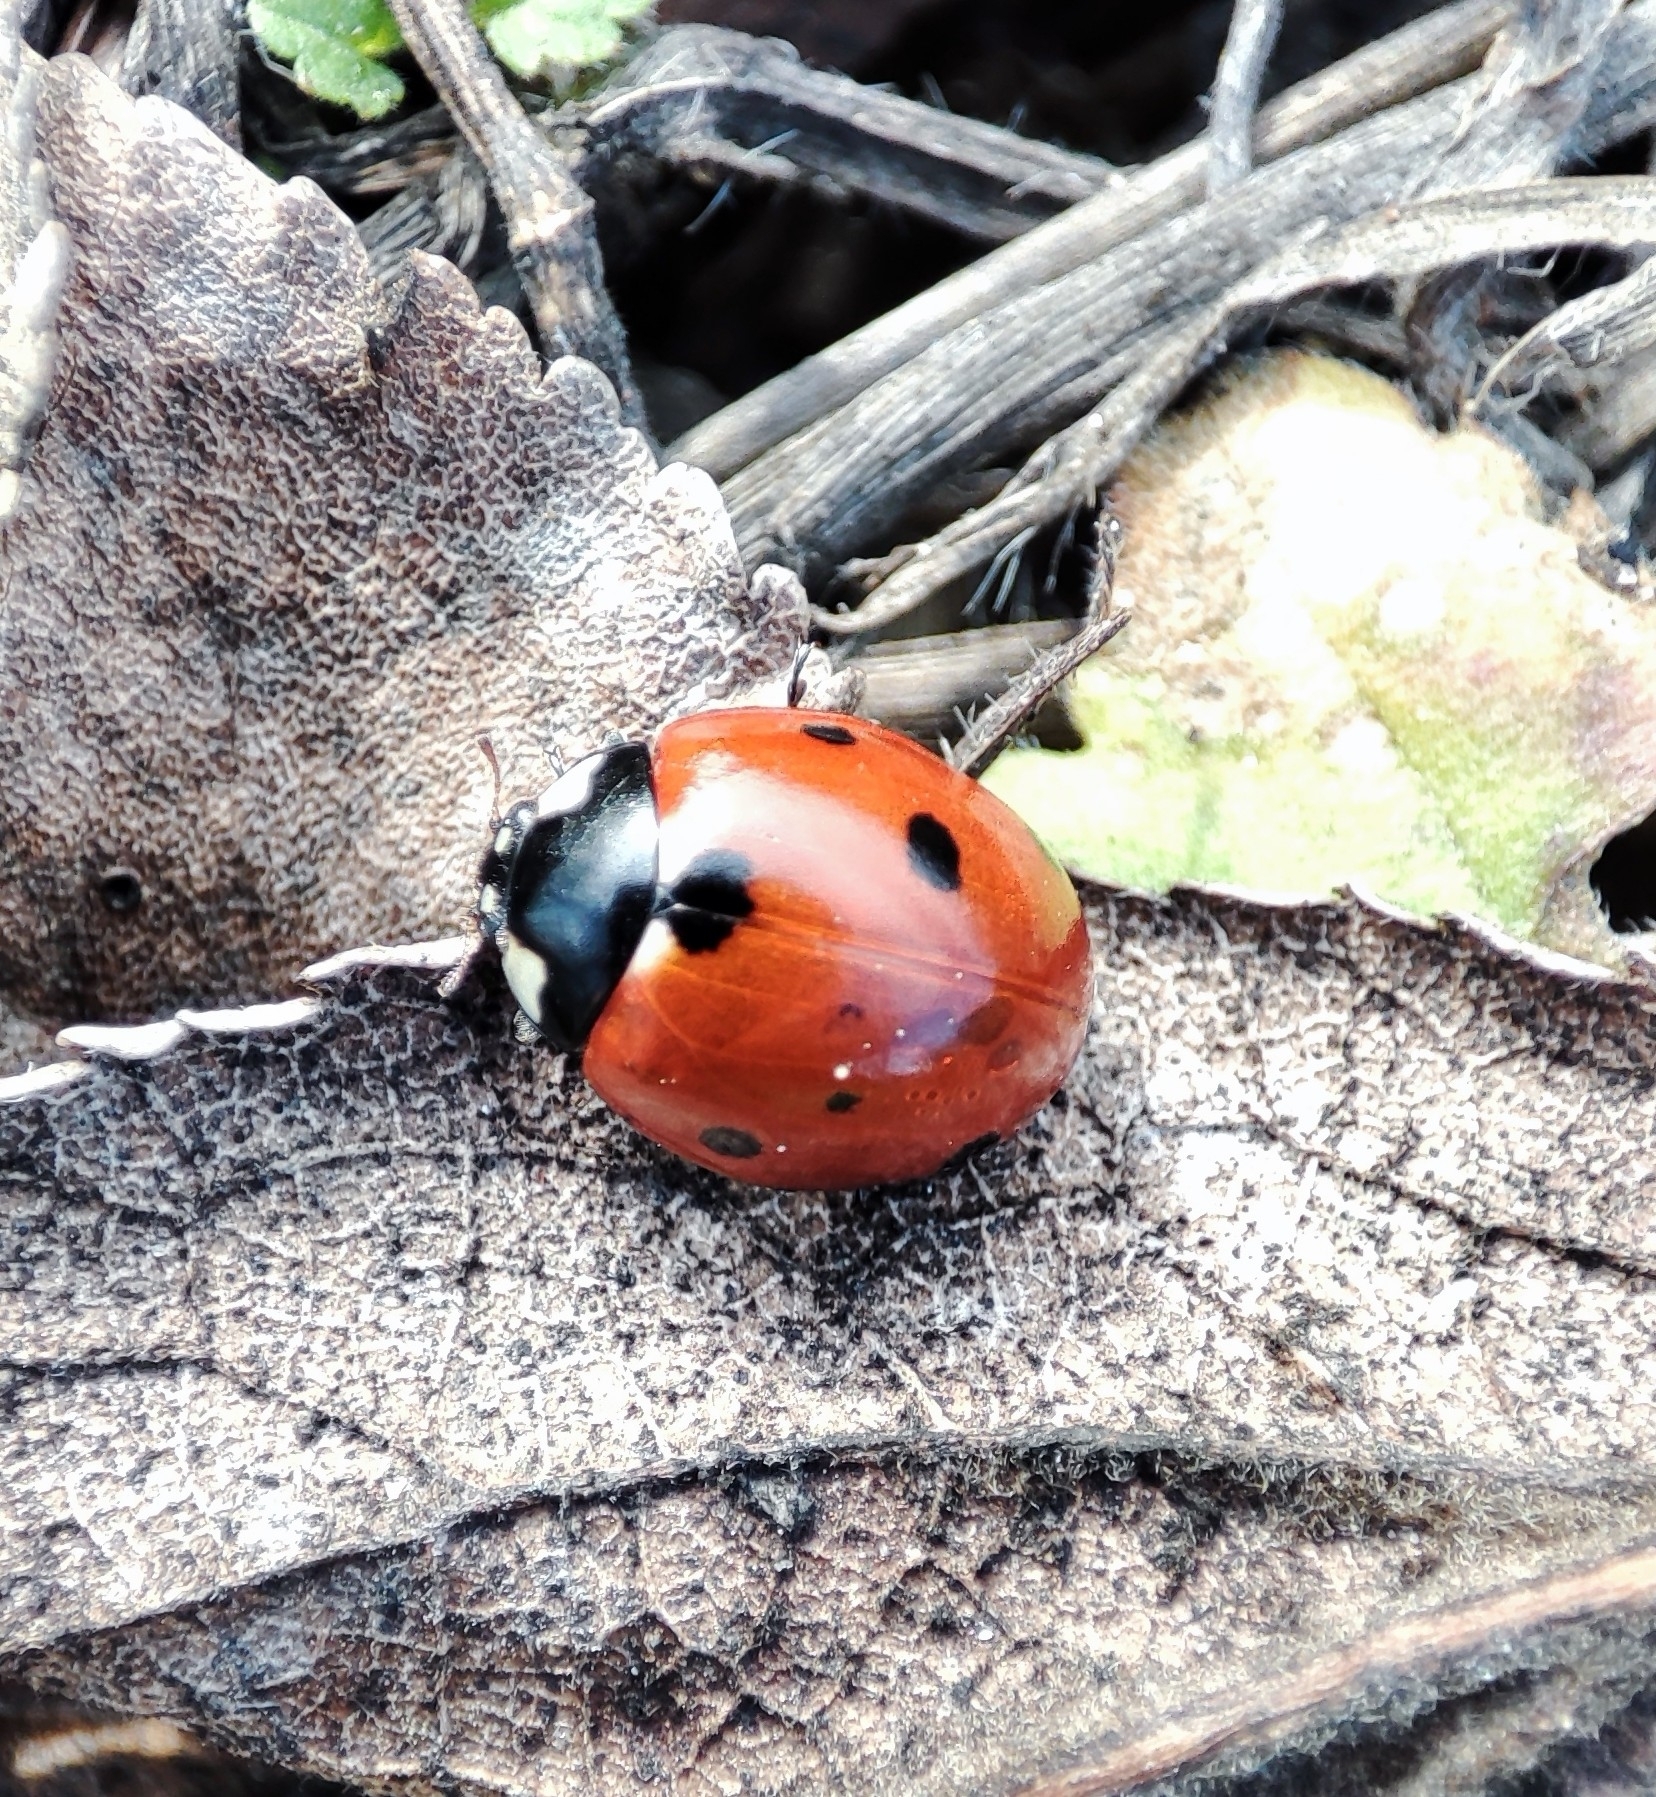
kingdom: Animalia
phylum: Arthropoda
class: Insecta
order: Coleoptera
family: Coccinellidae
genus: Coccinella
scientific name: Coccinella septempunctata
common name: Sevenspotted lady beetle
